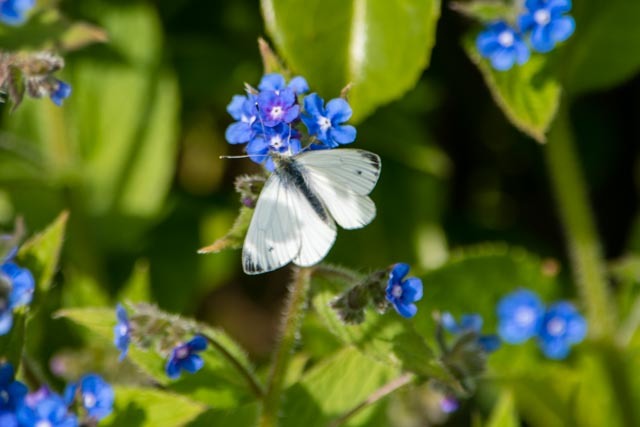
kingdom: Animalia
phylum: Arthropoda
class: Insecta
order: Lepidoptera
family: Pieridae
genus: Pieris
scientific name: Pieris napi
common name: Green-veined white
